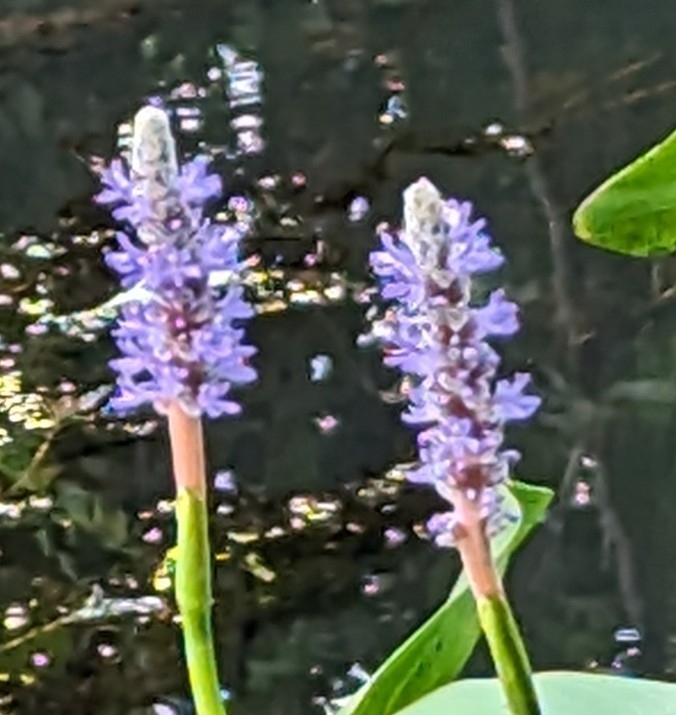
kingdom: Plantae
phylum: Tracheophyta
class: Liliopsida
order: Commelinales
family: Pontederiaceae
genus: Pontederia
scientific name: Pontederia cordata
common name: Pickerelweed
